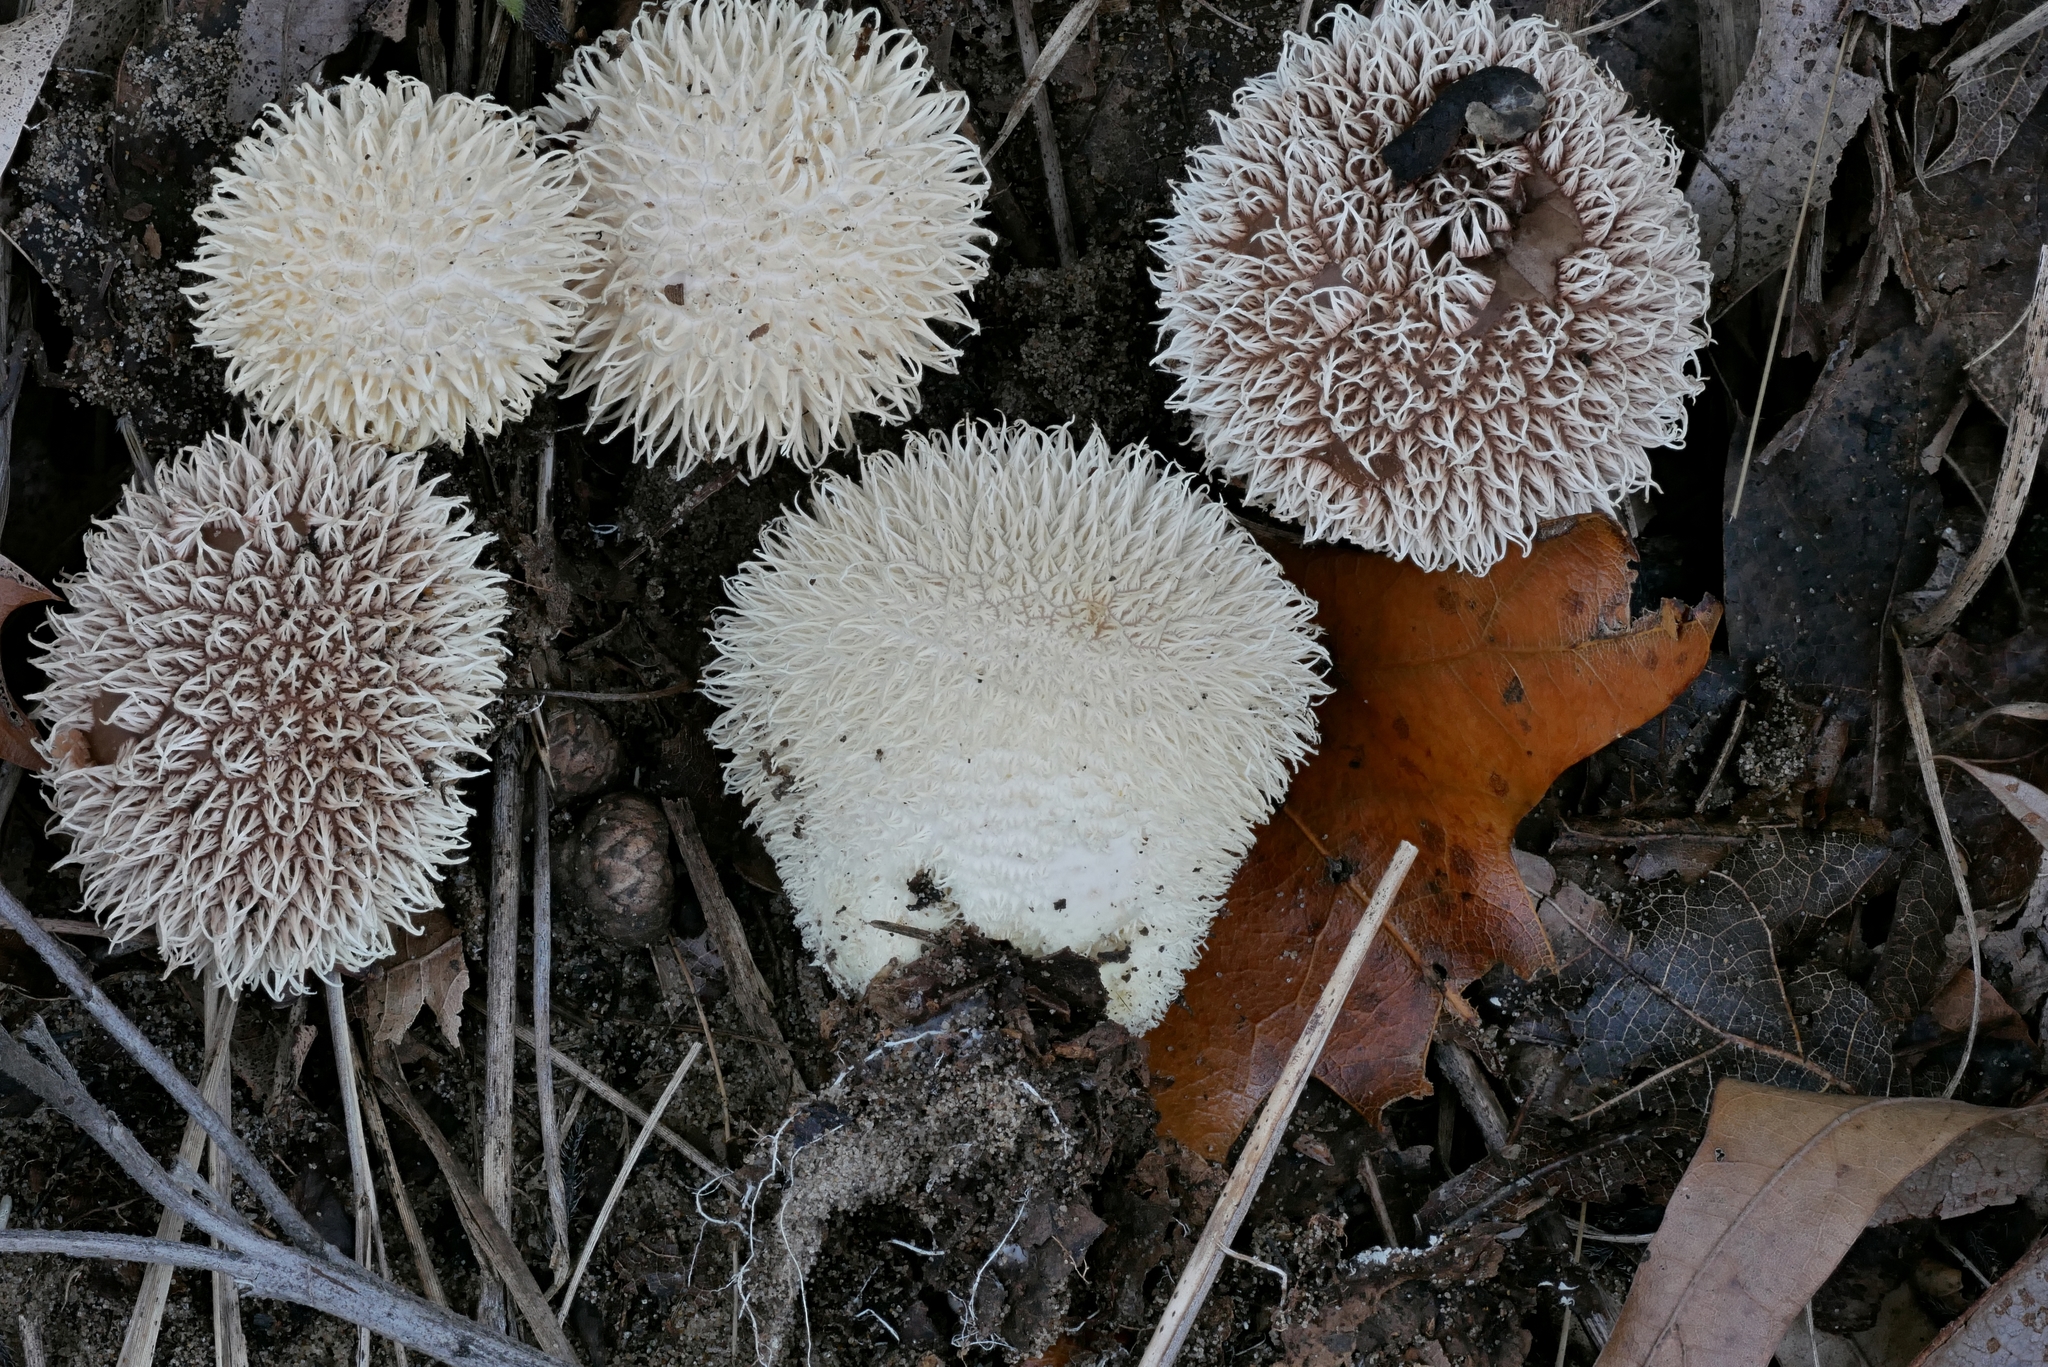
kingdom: Fungi
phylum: Basidiomycota
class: Agaricomycetes
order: Agaricales
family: Lycoperdaceae
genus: Lycoperdon
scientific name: Lycoperdon
